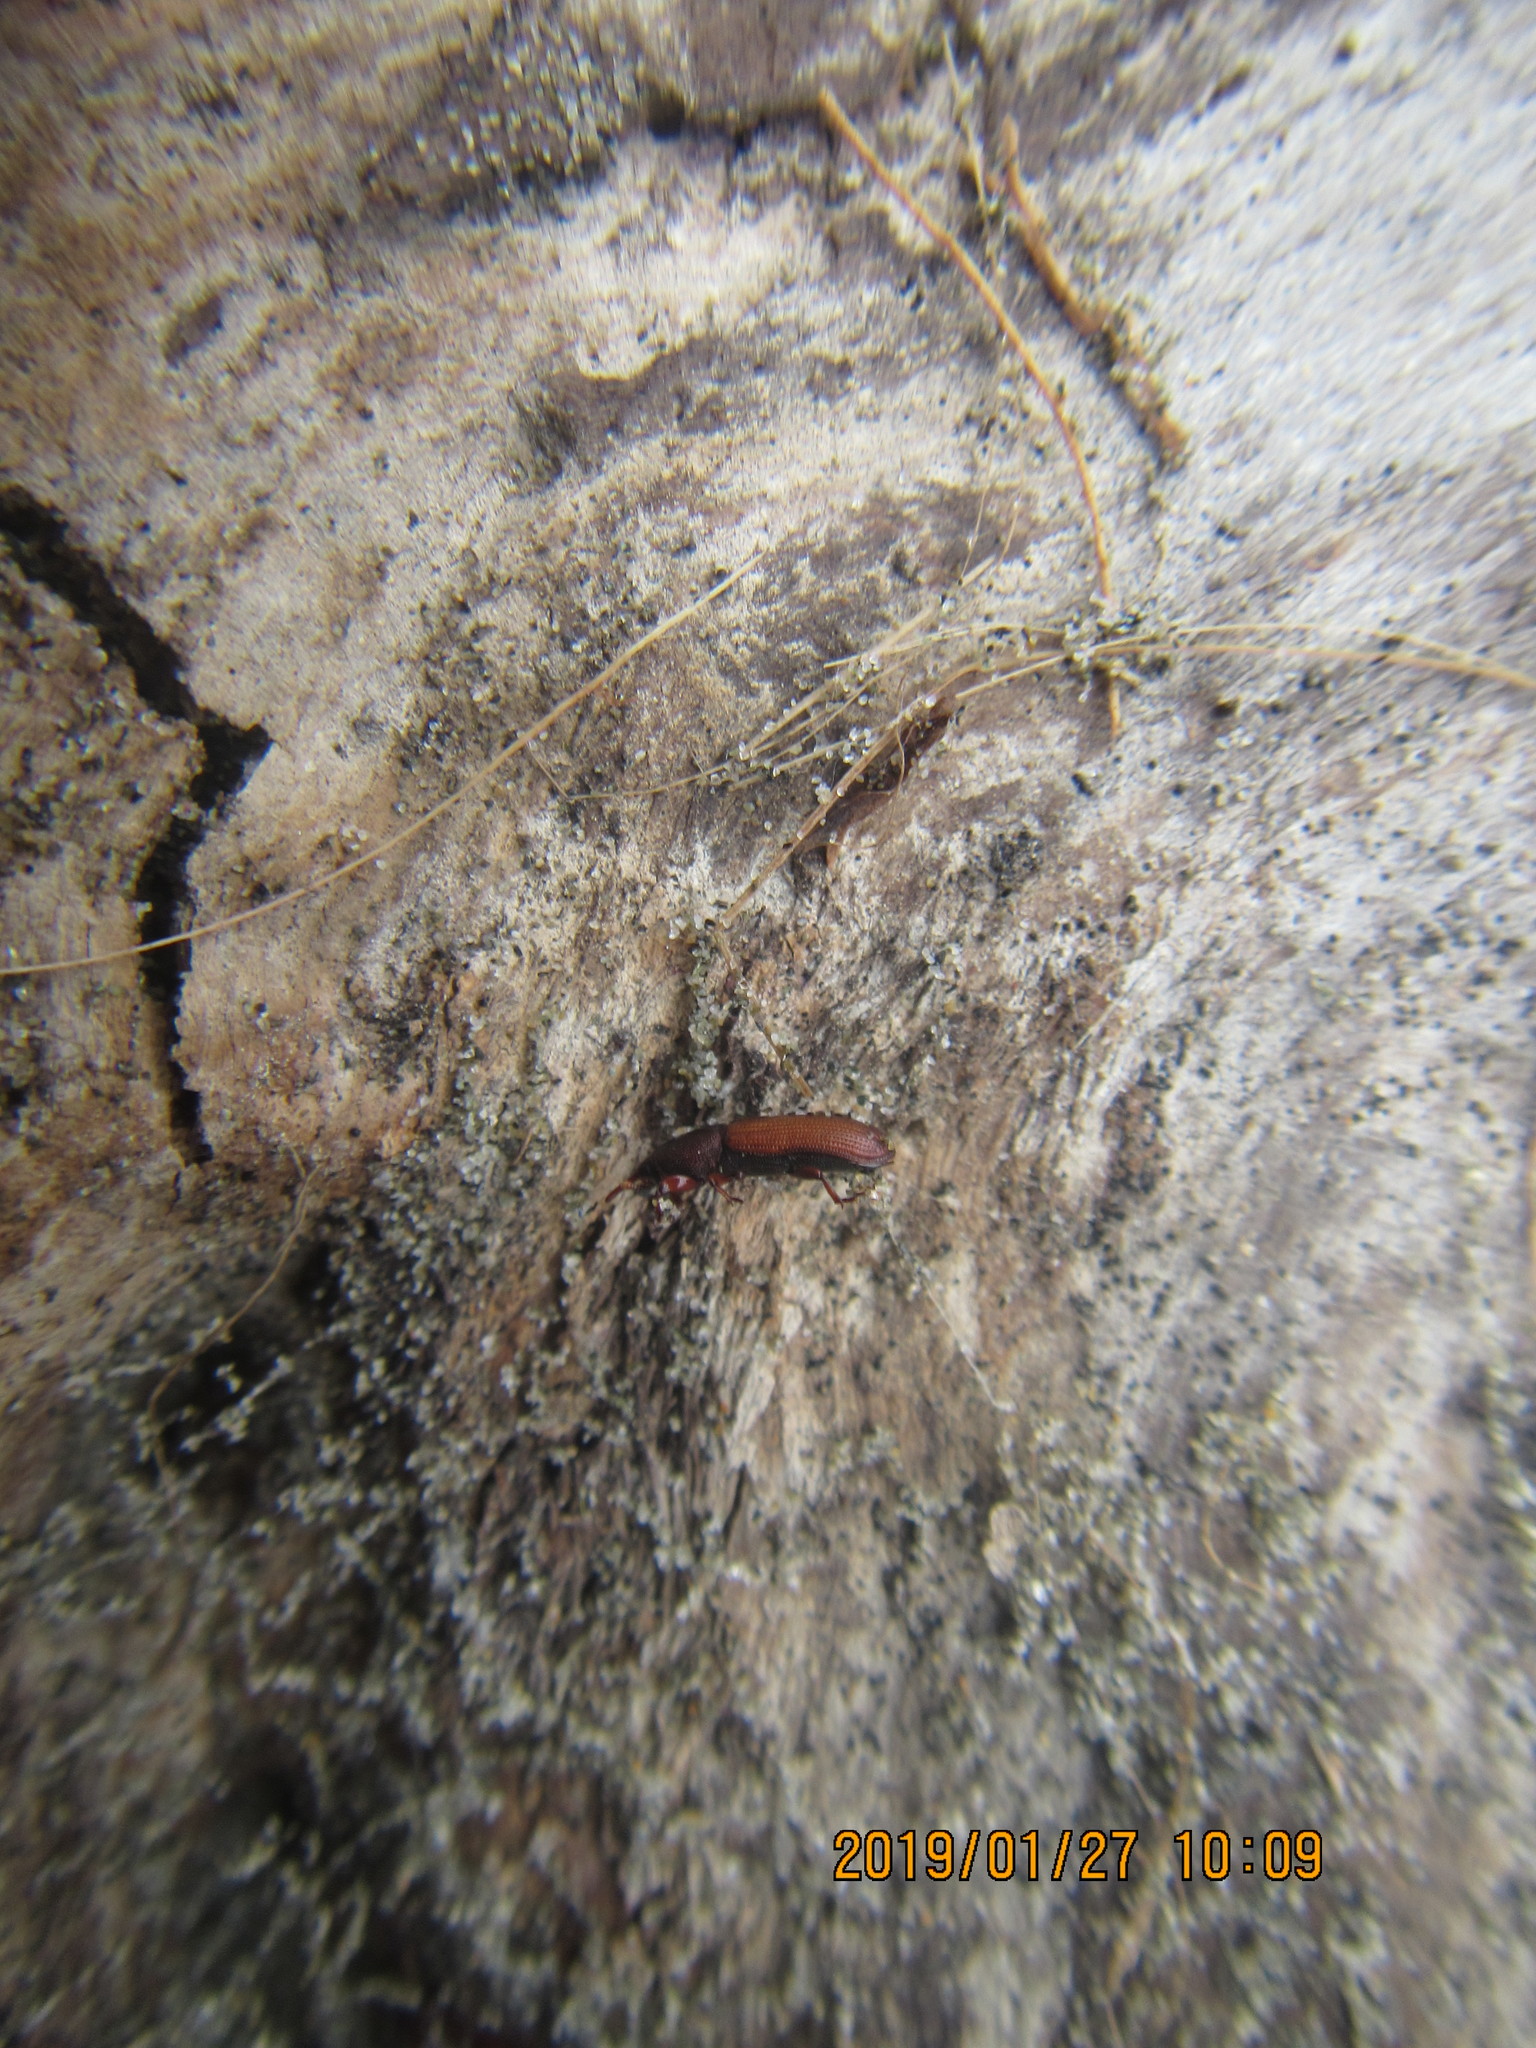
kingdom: Animalia
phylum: Arthropoda
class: Arachnida
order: Araneae
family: Theridiidae
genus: Steatoda
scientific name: Steatoda capensis
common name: Cobweb weaver
